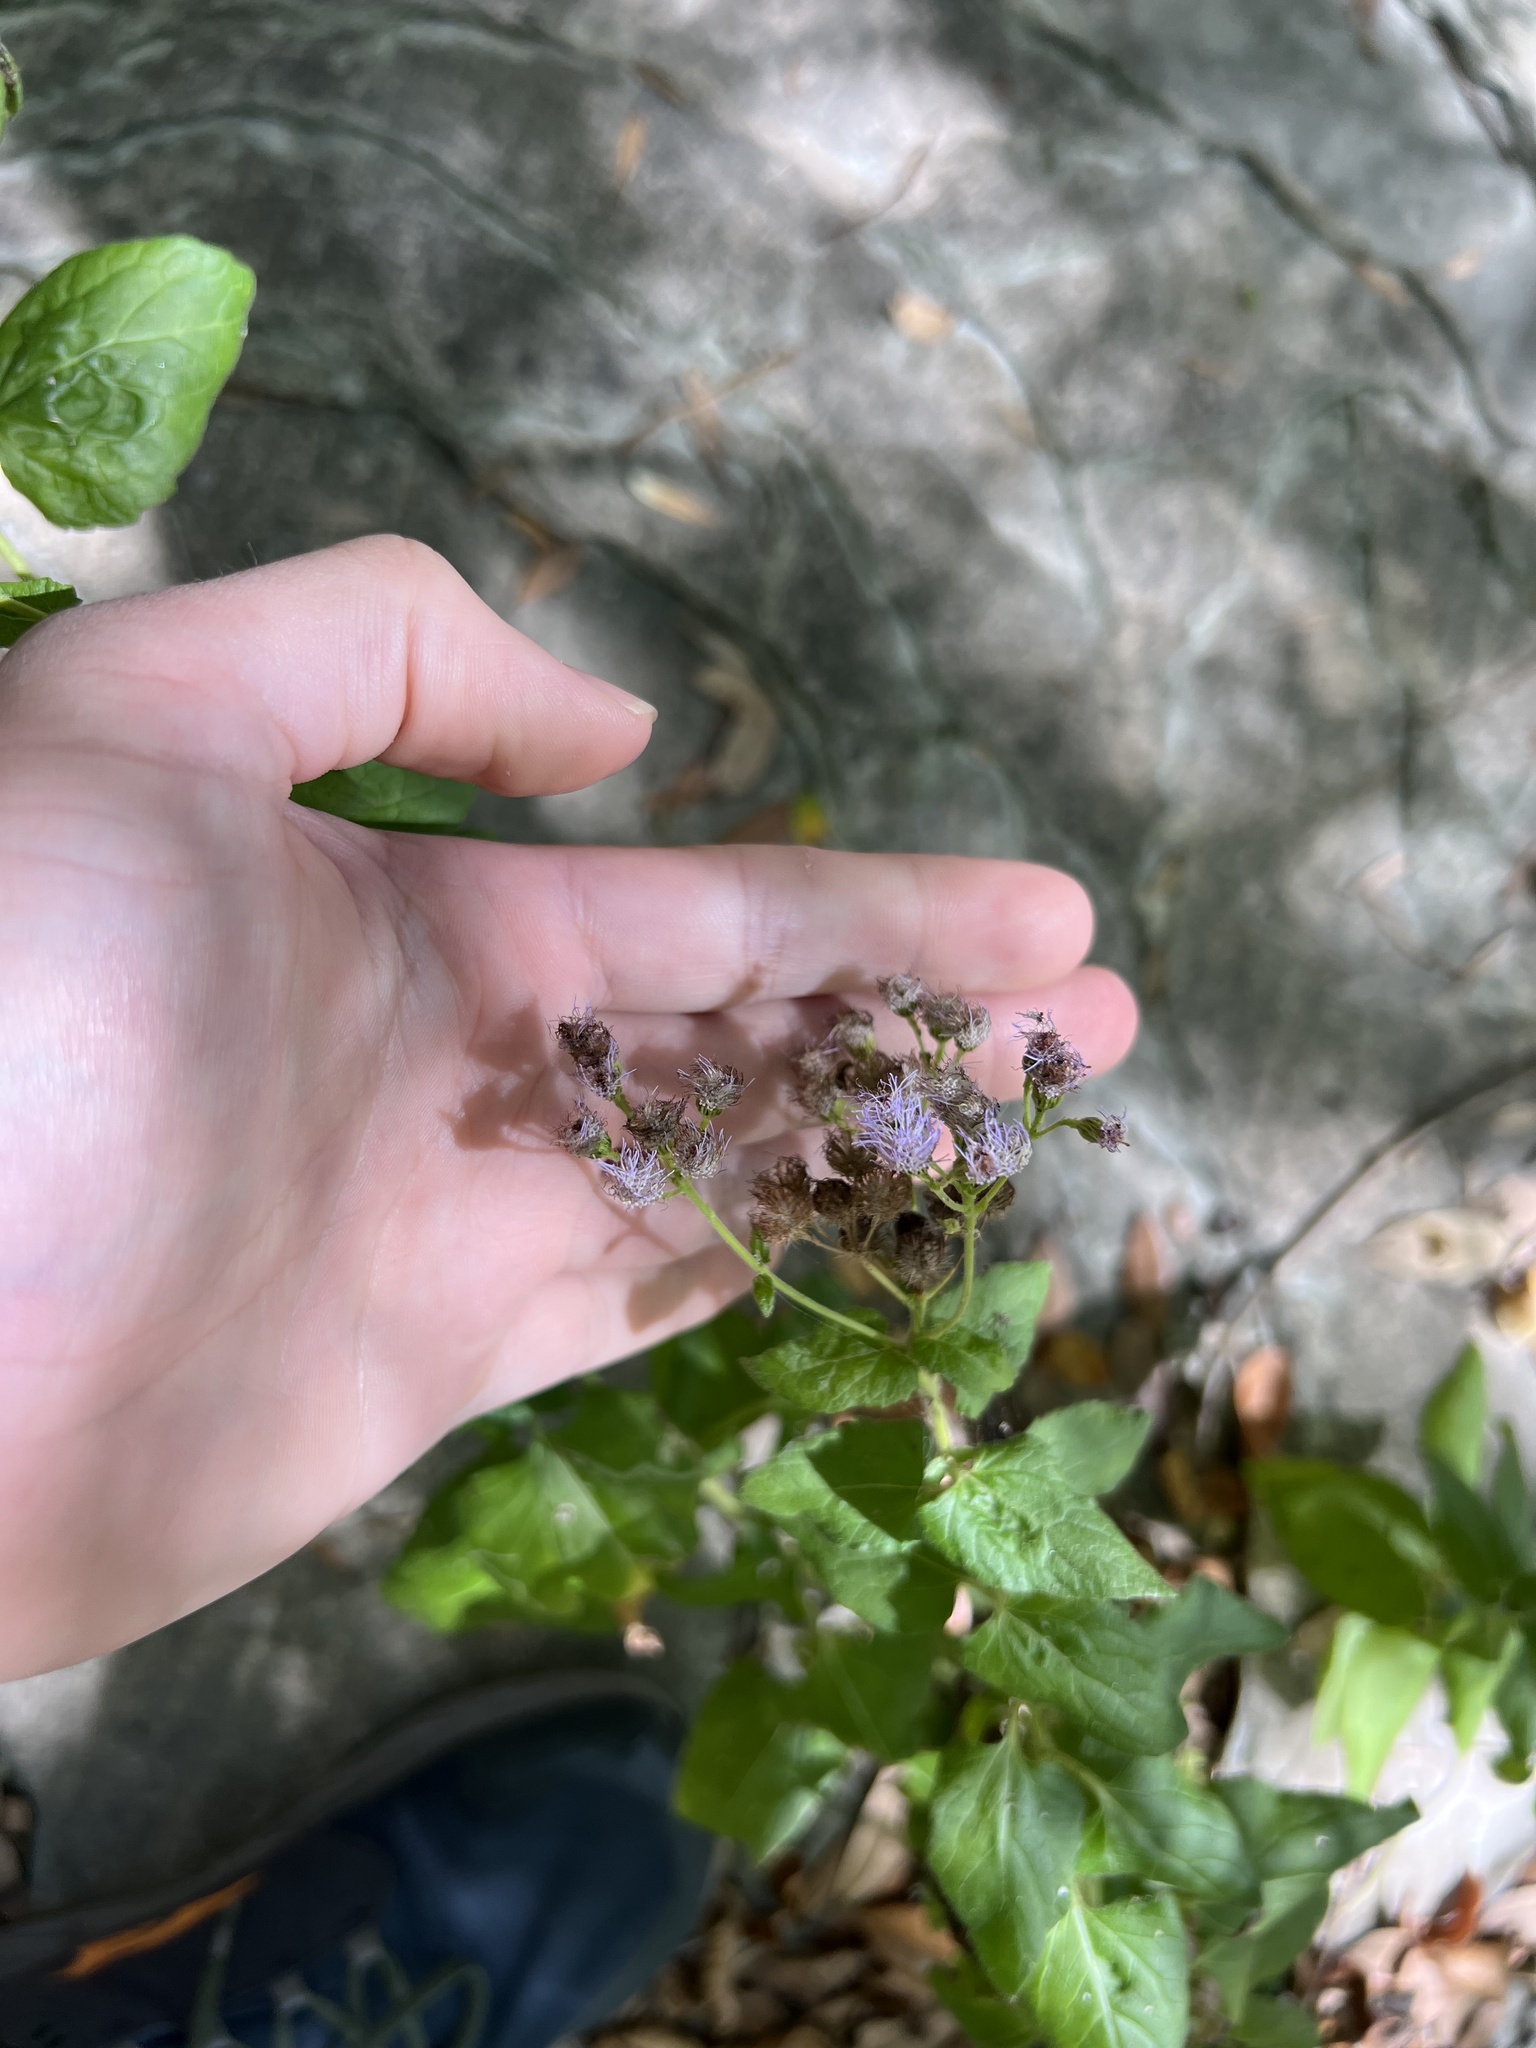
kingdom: Plantae
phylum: Tracheophyta
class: Magnoliopsida
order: Asterales
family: Asteraceae
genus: Conoclinium
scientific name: Conoclinium coelestinum
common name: Blue mistflower
